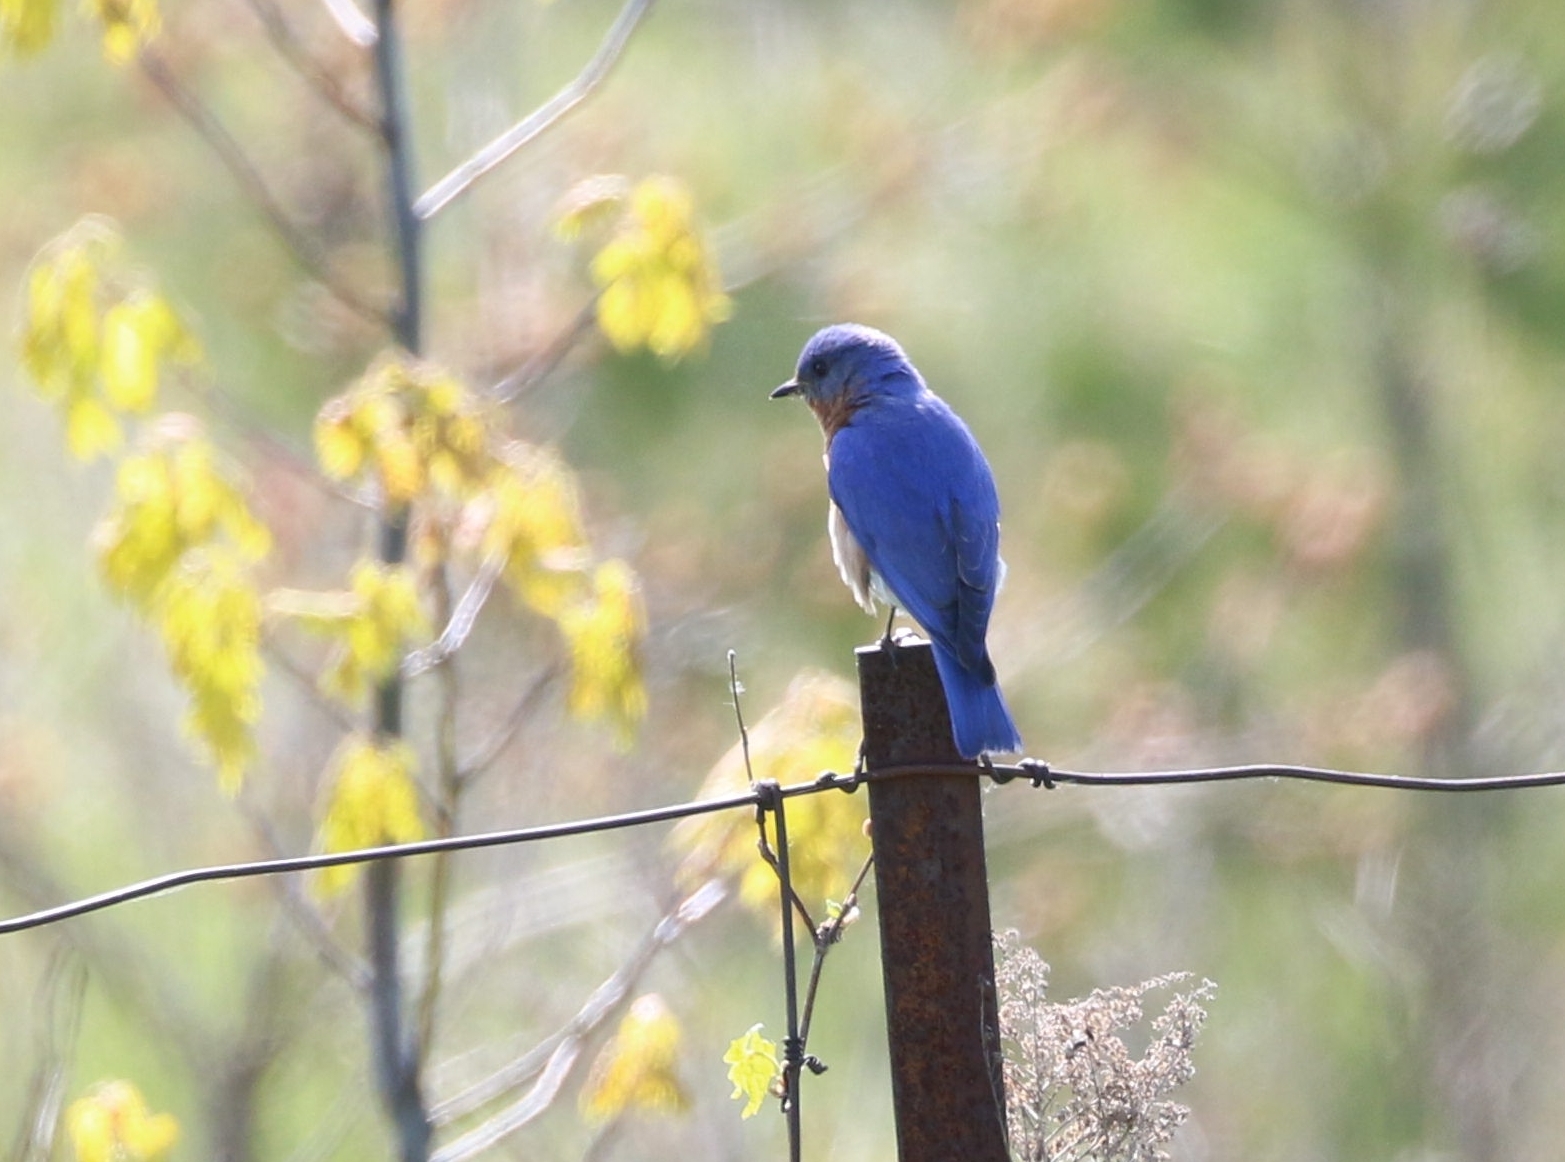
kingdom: Animalia
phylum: Chordata
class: Aves
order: Passeriformes
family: Turdidae
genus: Sialia
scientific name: Sialia sialis
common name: Eastern bluebird
